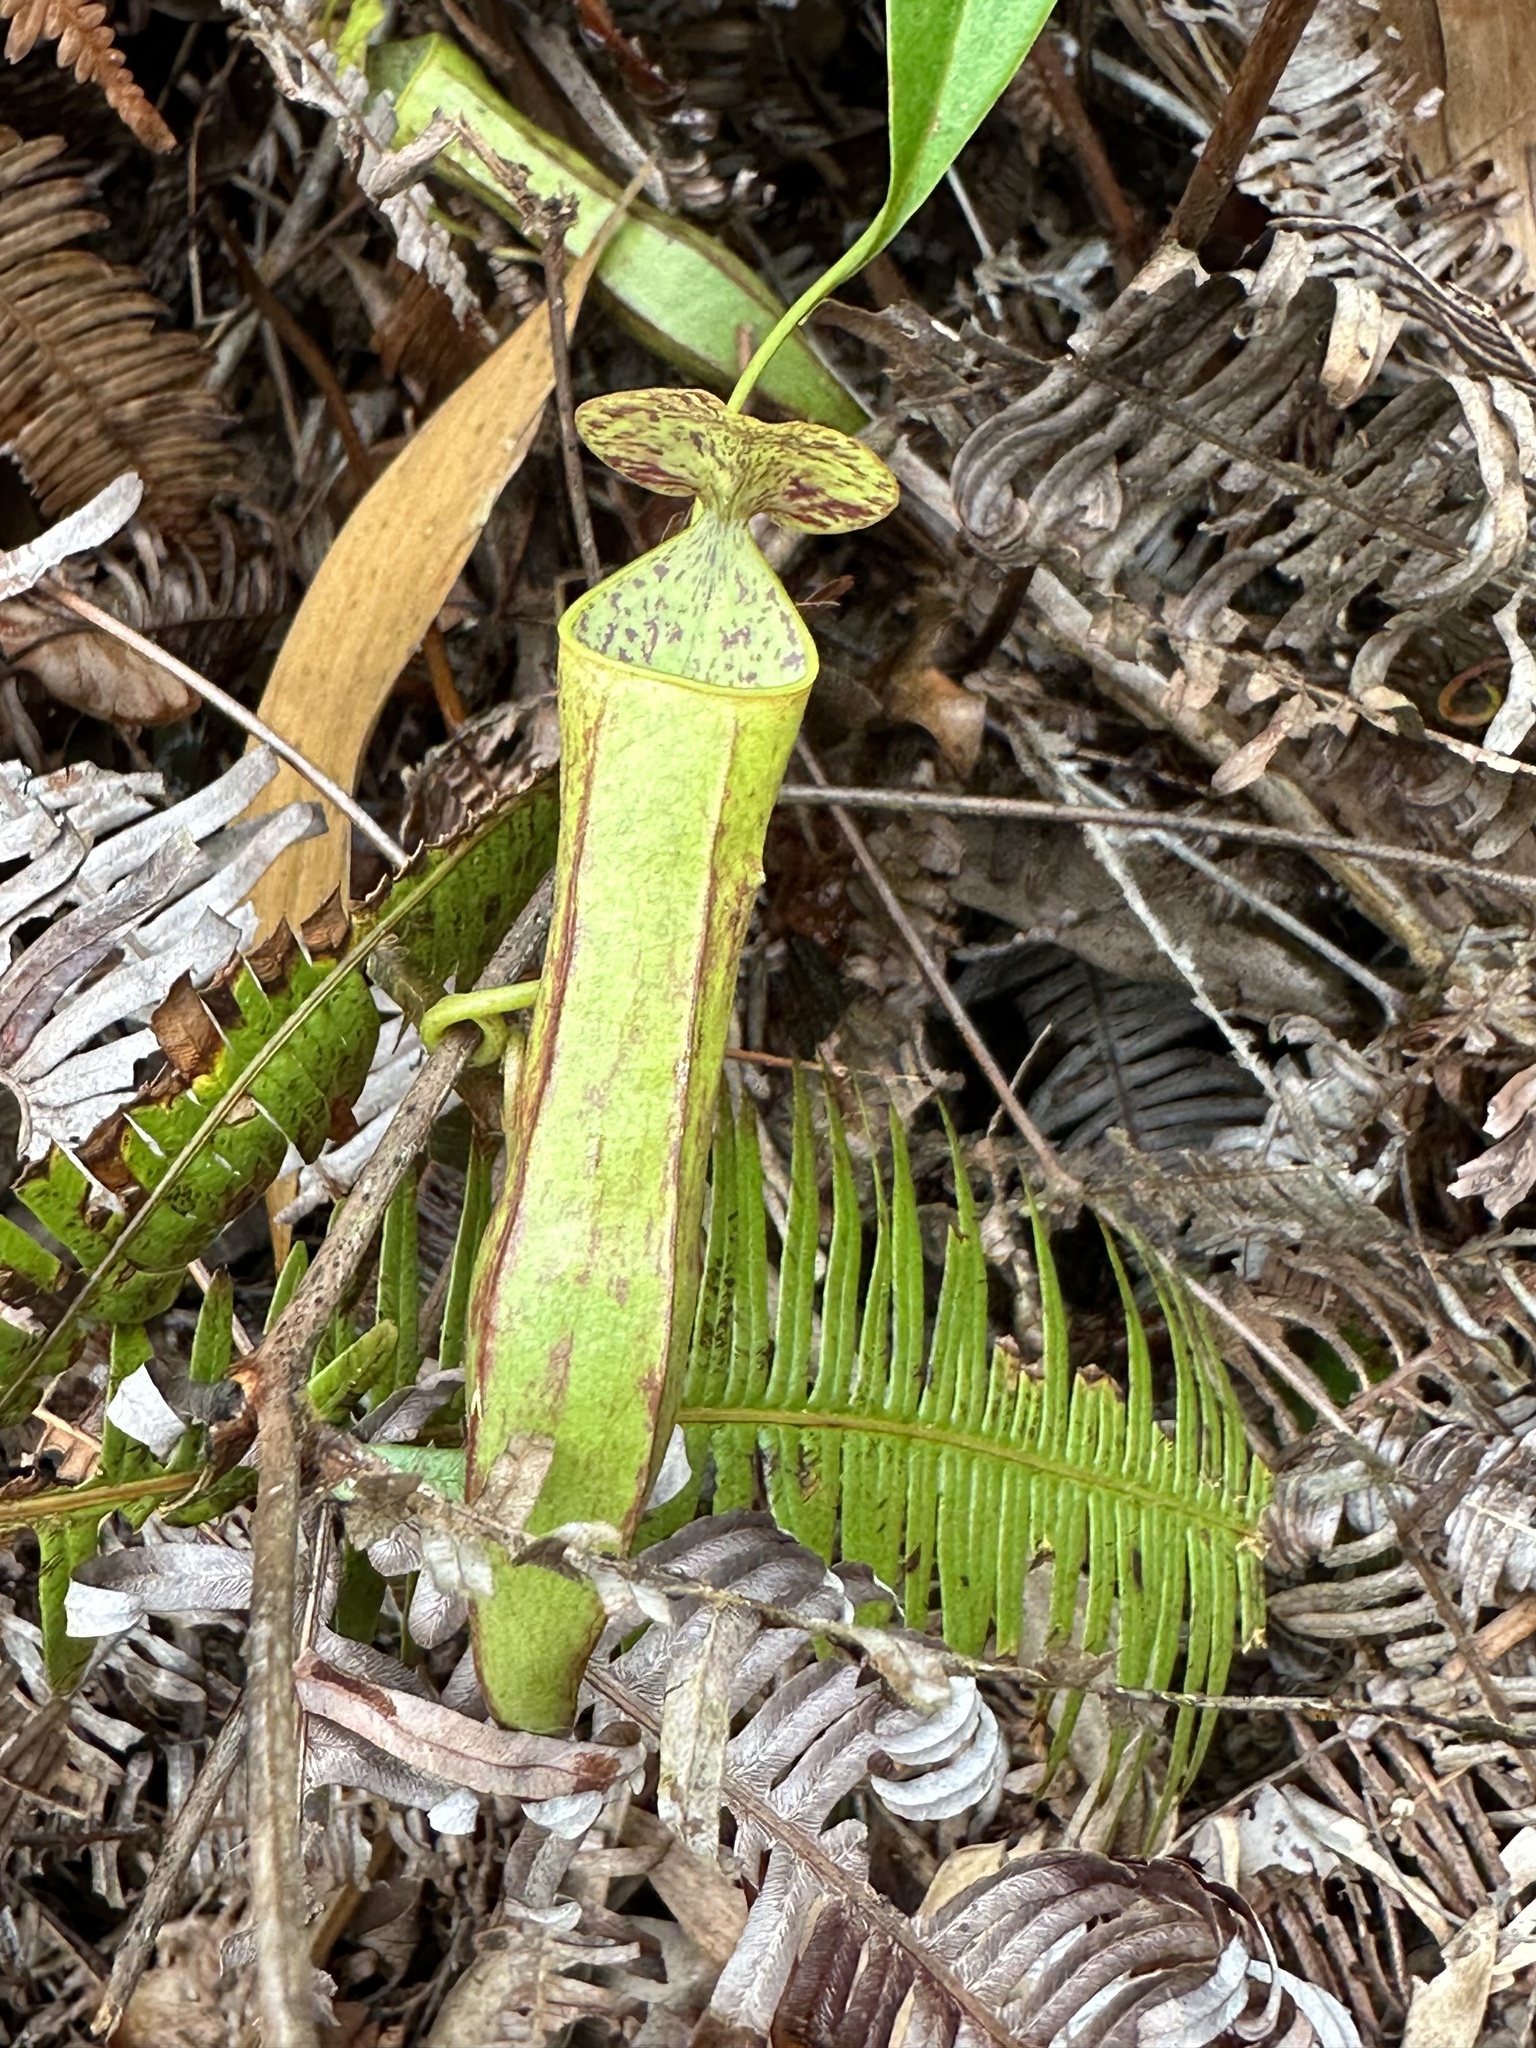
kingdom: Plantae
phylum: Tracheophyta
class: Magnoliopsida
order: Caryophyllales
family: Nepenthaceae
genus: Nepenthes
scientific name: Nepenthes gracilis
